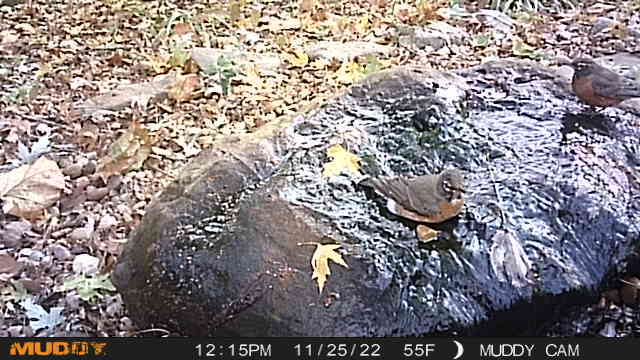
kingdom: Animalia
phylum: Chordata
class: Aves
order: Passeriformes
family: Turdidae
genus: Turdus
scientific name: Turdus migratorius
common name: American robin
